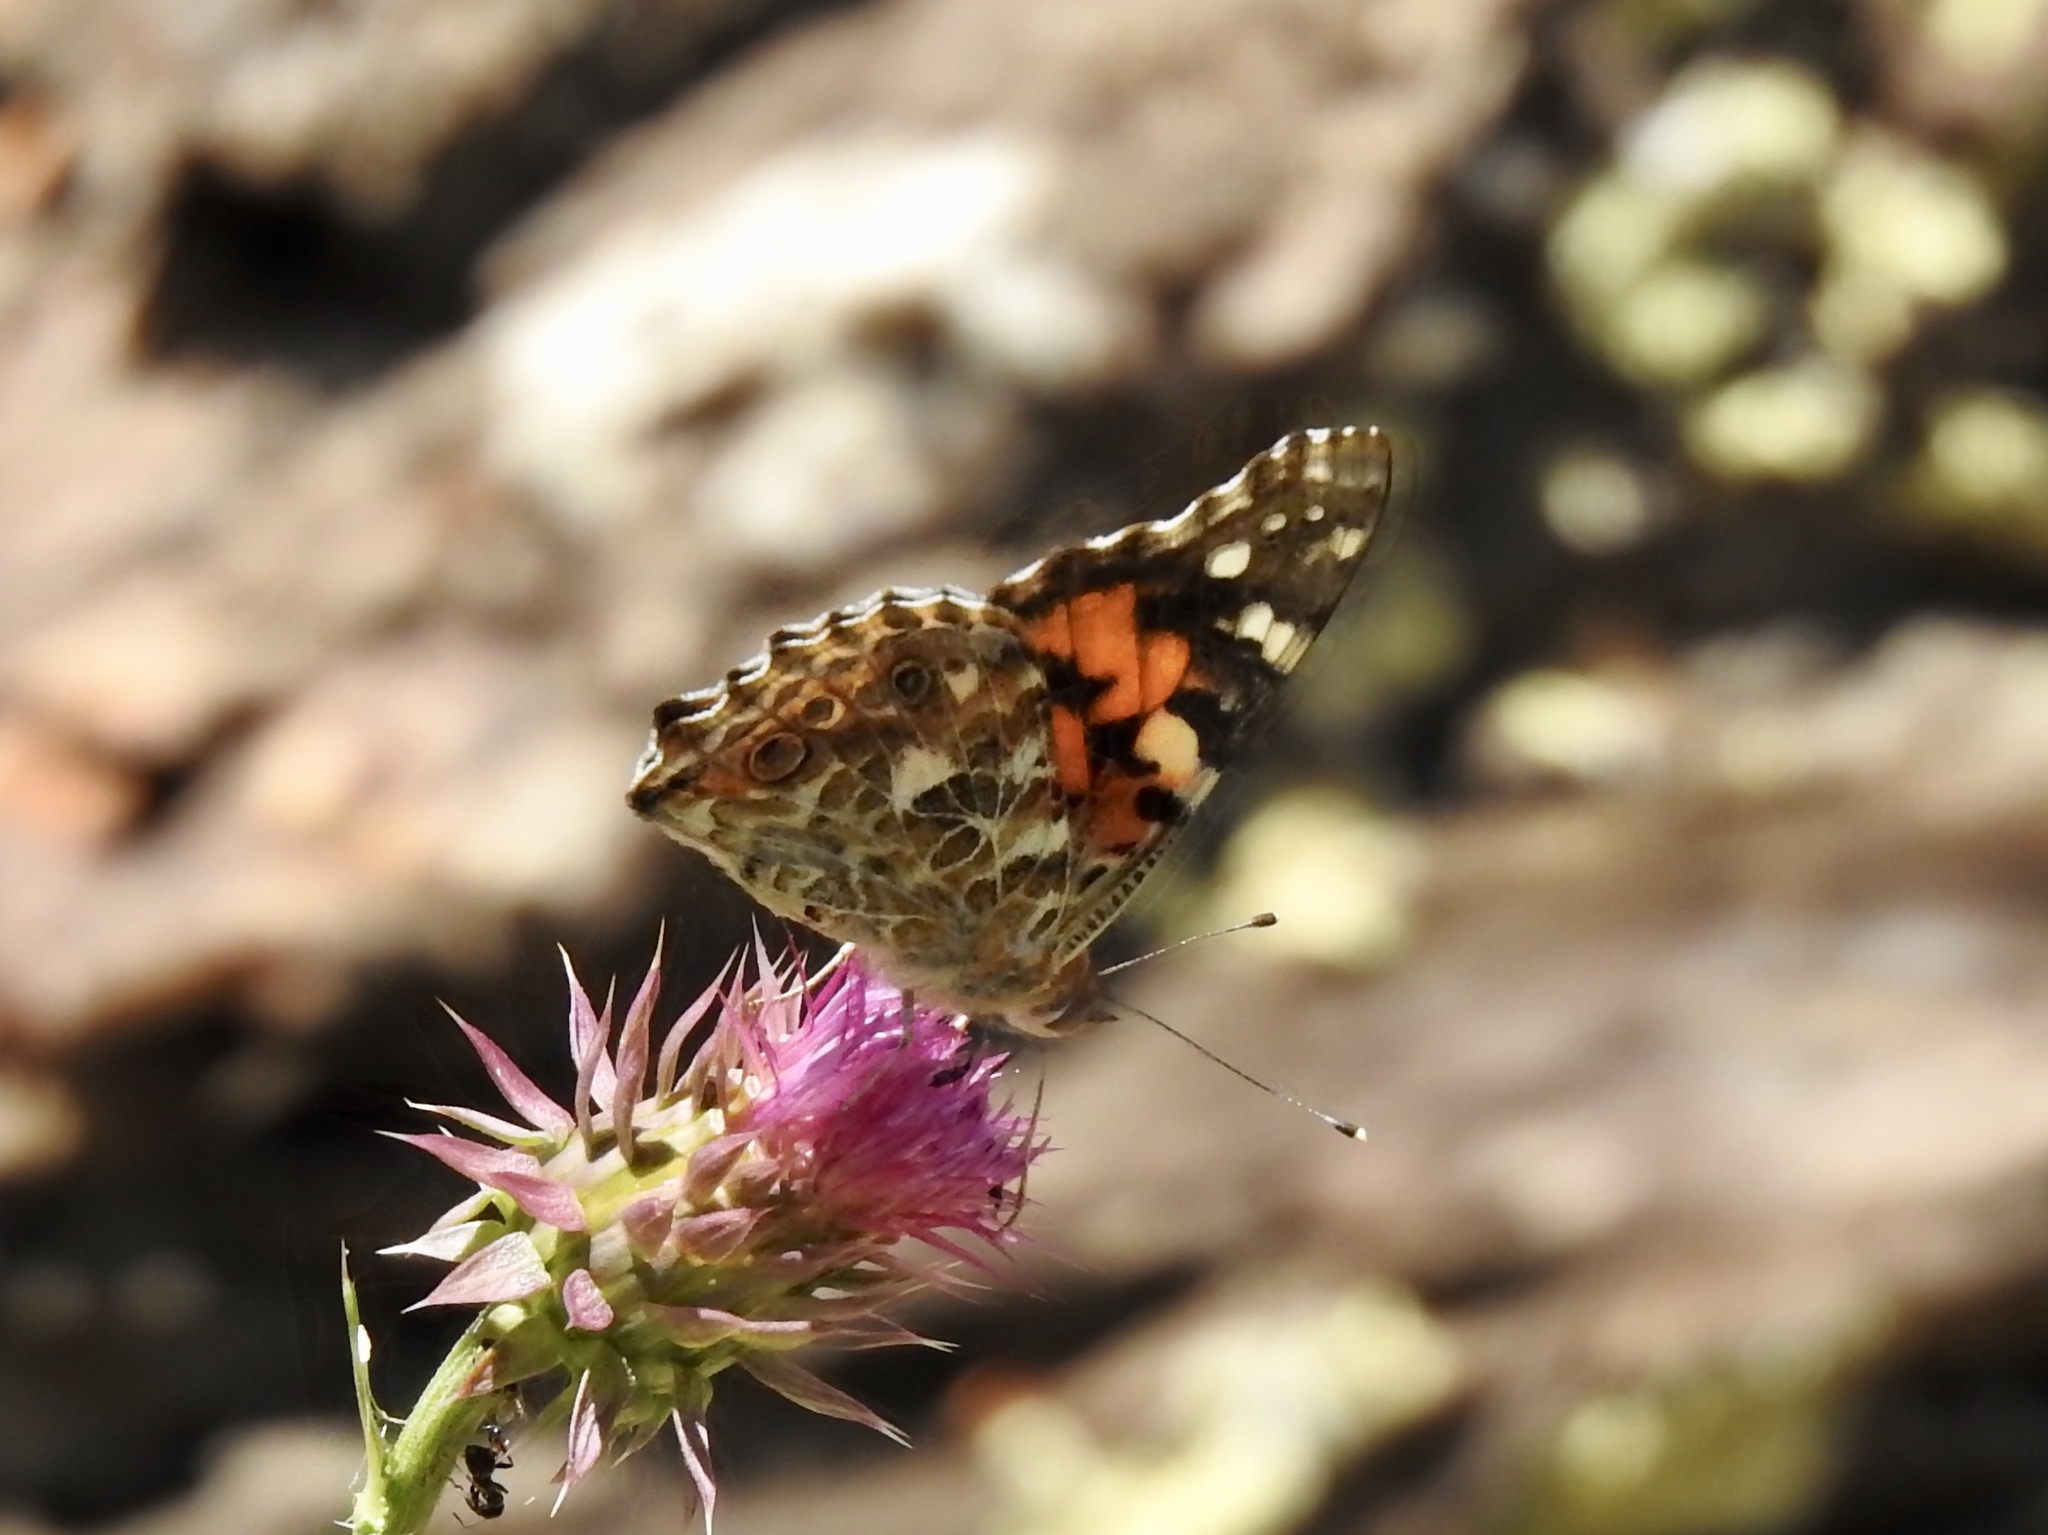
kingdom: Animalia
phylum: Arthropoda
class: Insecta
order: Lepidoptera
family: Nymphalidae
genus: Vanessa
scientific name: Vanessa cardui
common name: Painted lady
